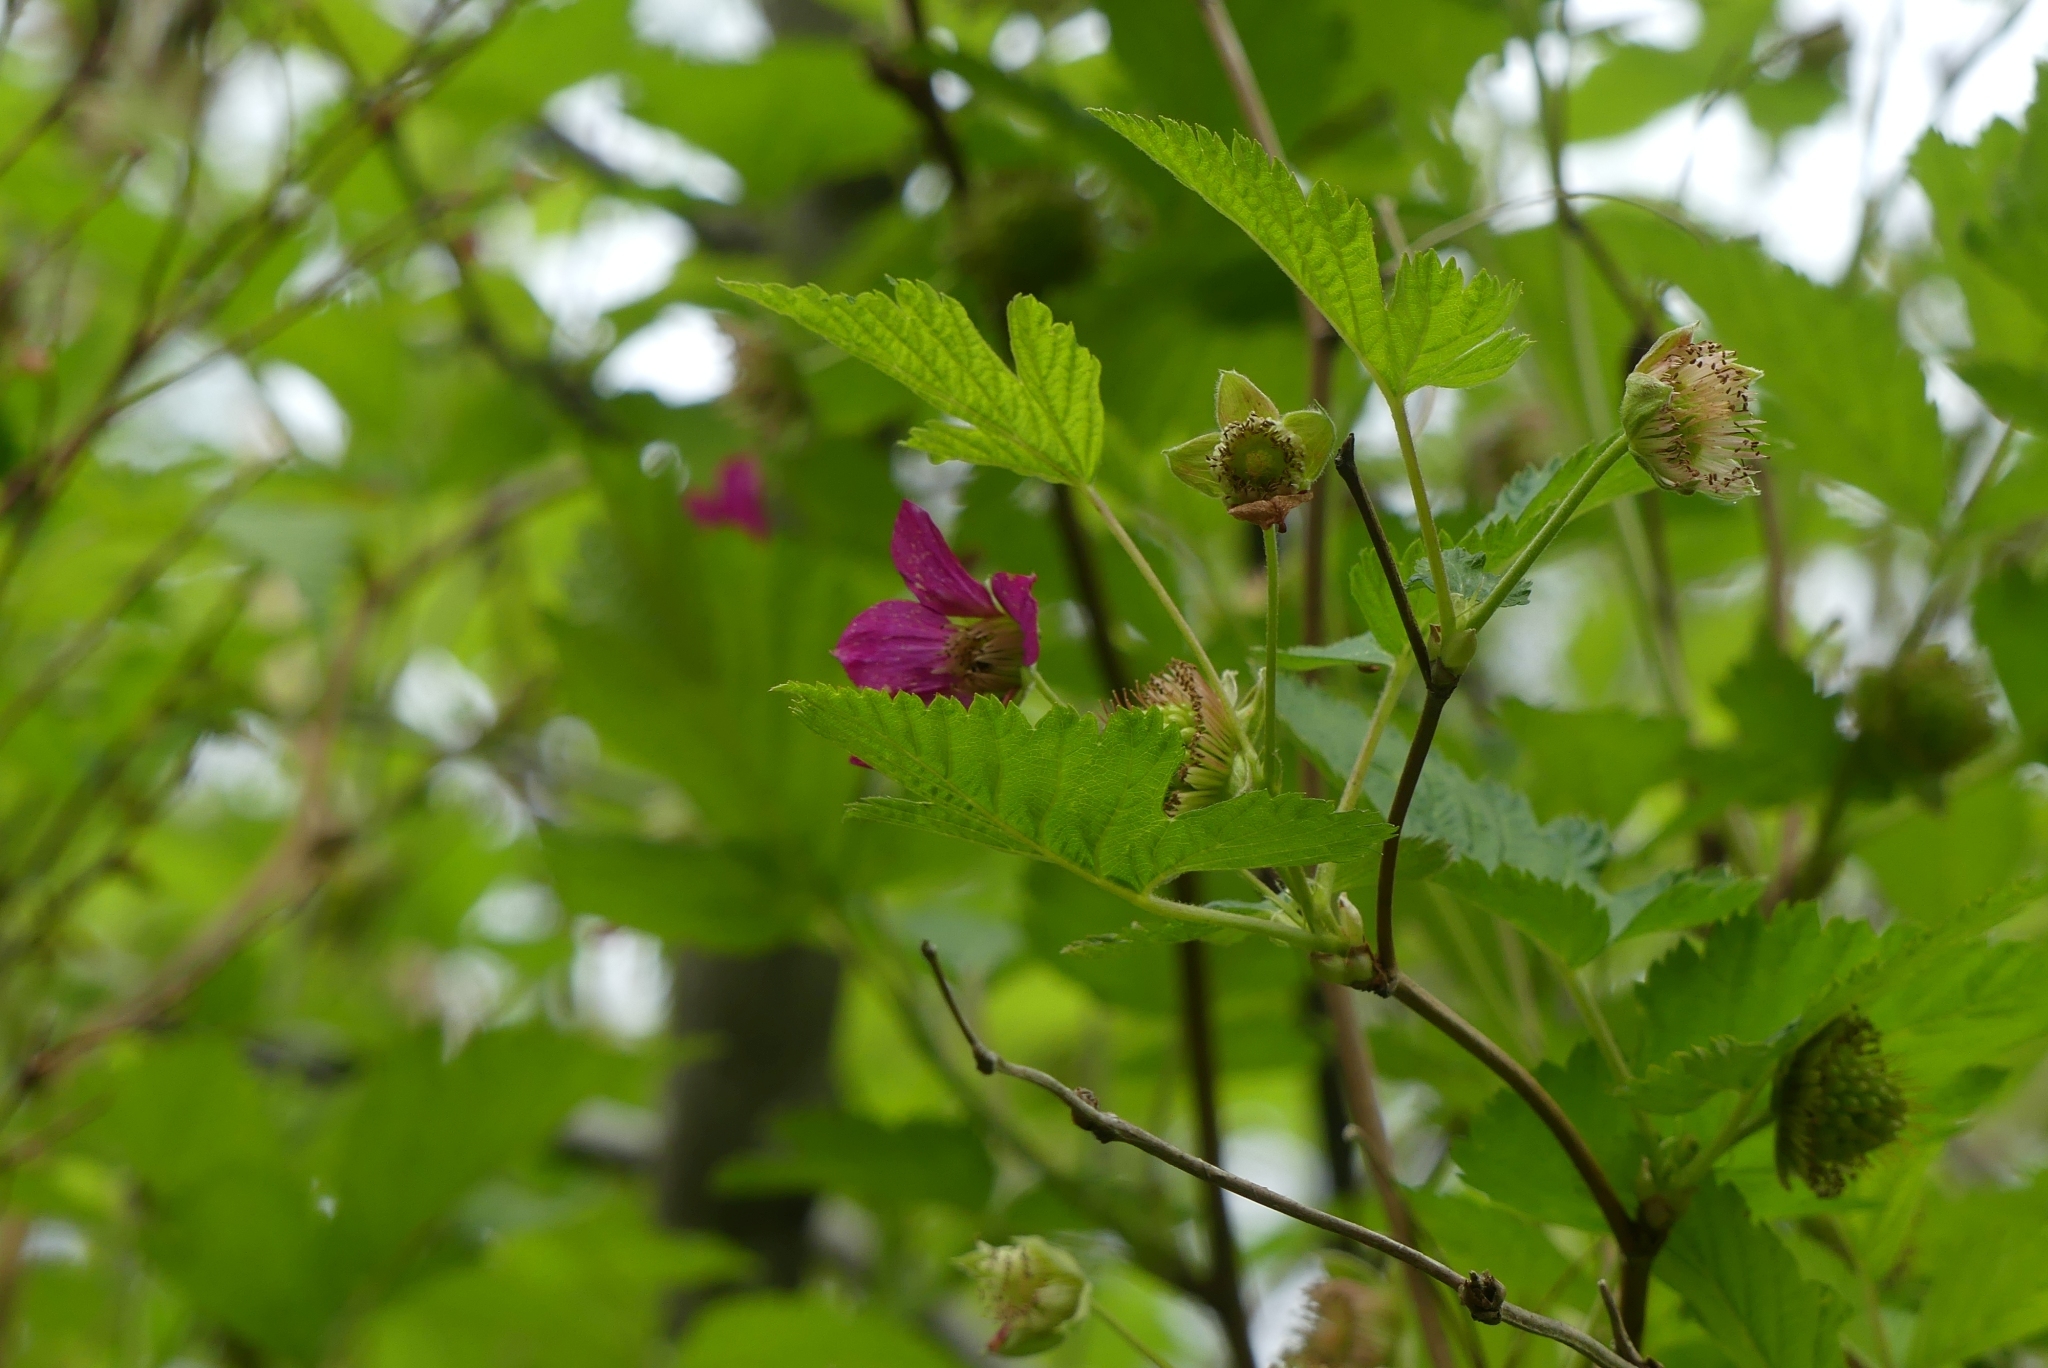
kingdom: Plantae
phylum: Tracheophyta
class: Magnoliopsida
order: Rosales
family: Rosaceae
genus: Rubus
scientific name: Rubus spectabilis
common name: Salmonberry
